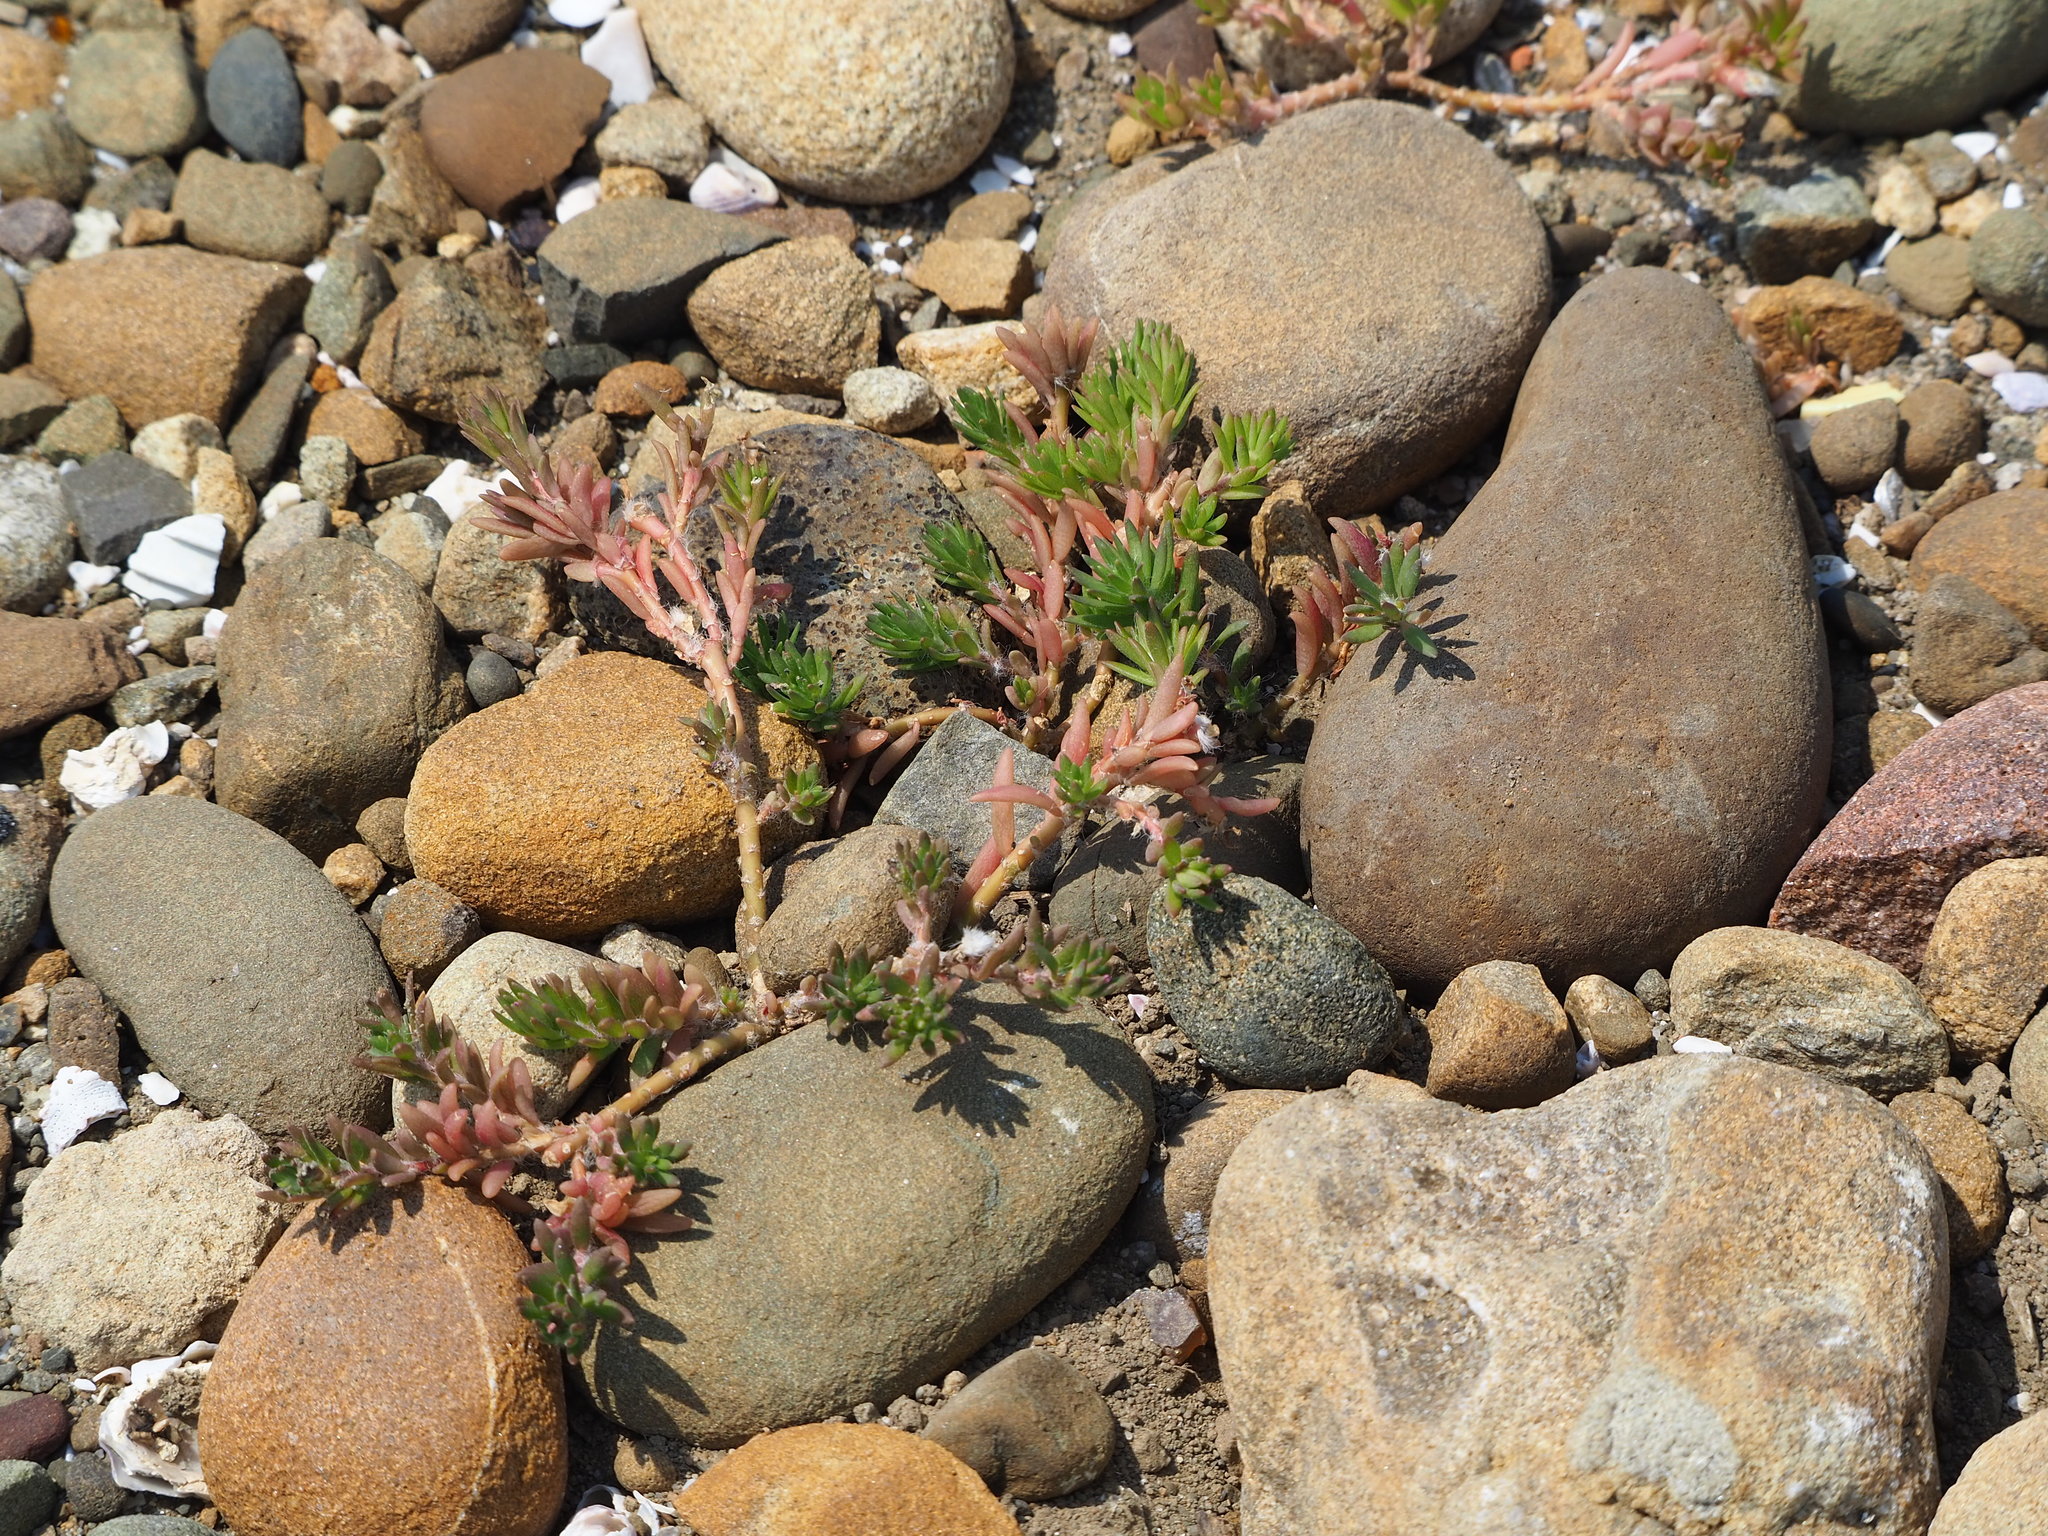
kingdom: Plantae
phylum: Tracheophyta
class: Magnoliopsida
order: Caryophyllales
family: Portulacaceae
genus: Portulaca
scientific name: Portulaca pilosa
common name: Kiss me quick
